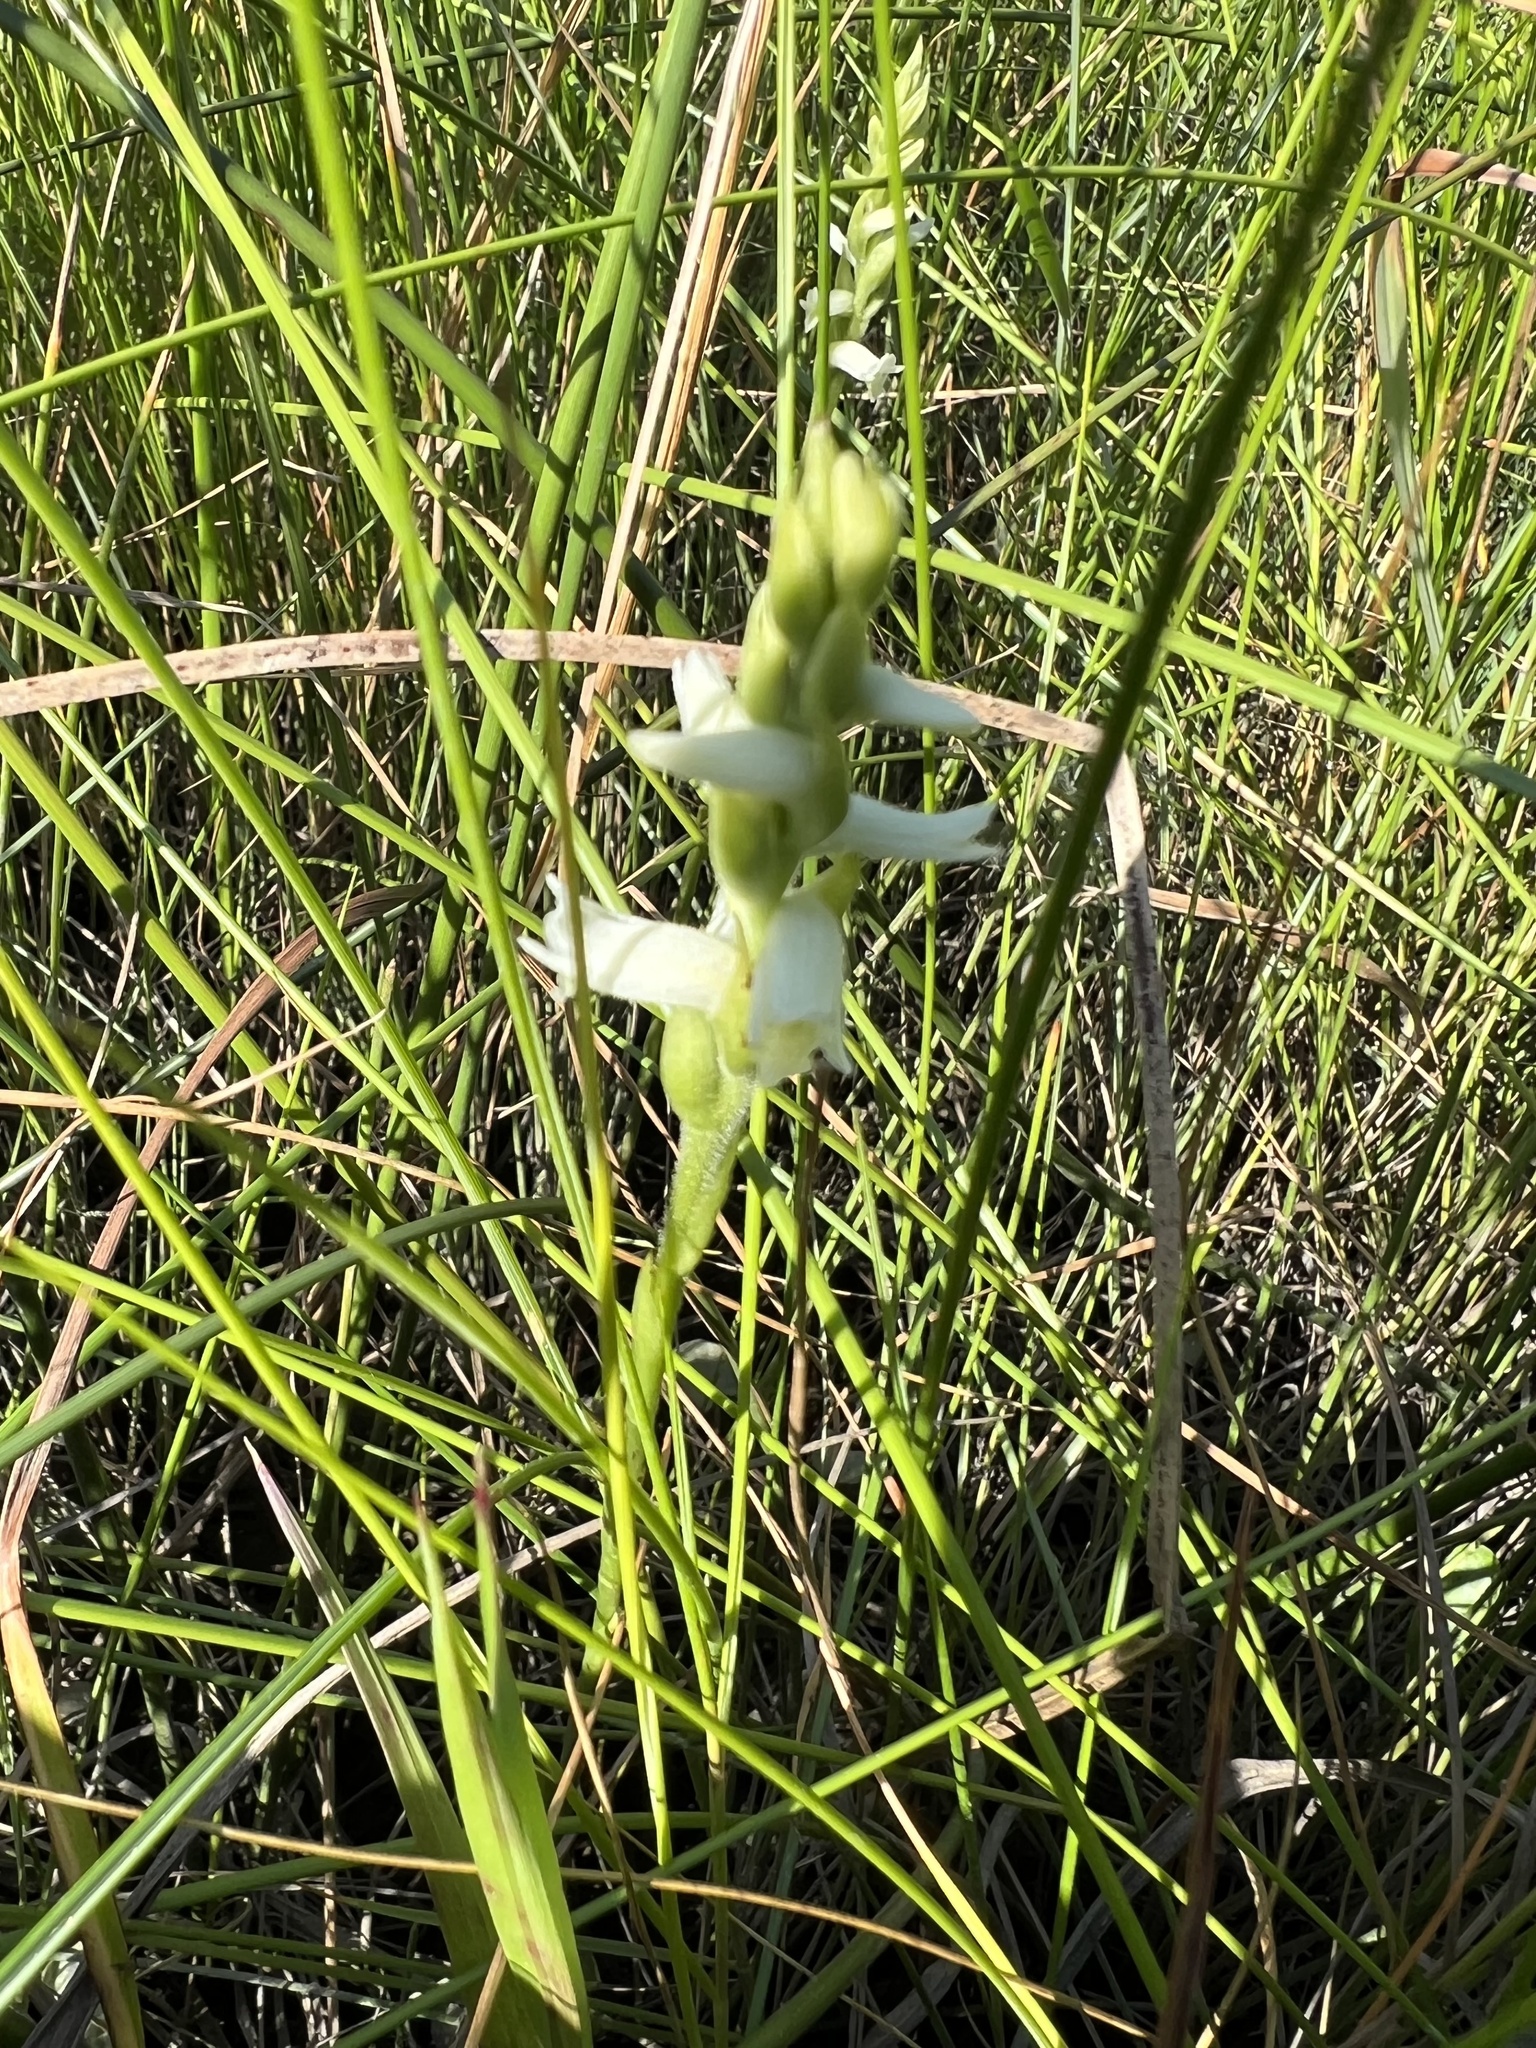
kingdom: Plantae
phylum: Tracheophyta
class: Liliopsida
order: Asparagales
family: Orchidaceae
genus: Spiranthes
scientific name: Spiranthes odorata
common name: Marsh ladies'-tresses
